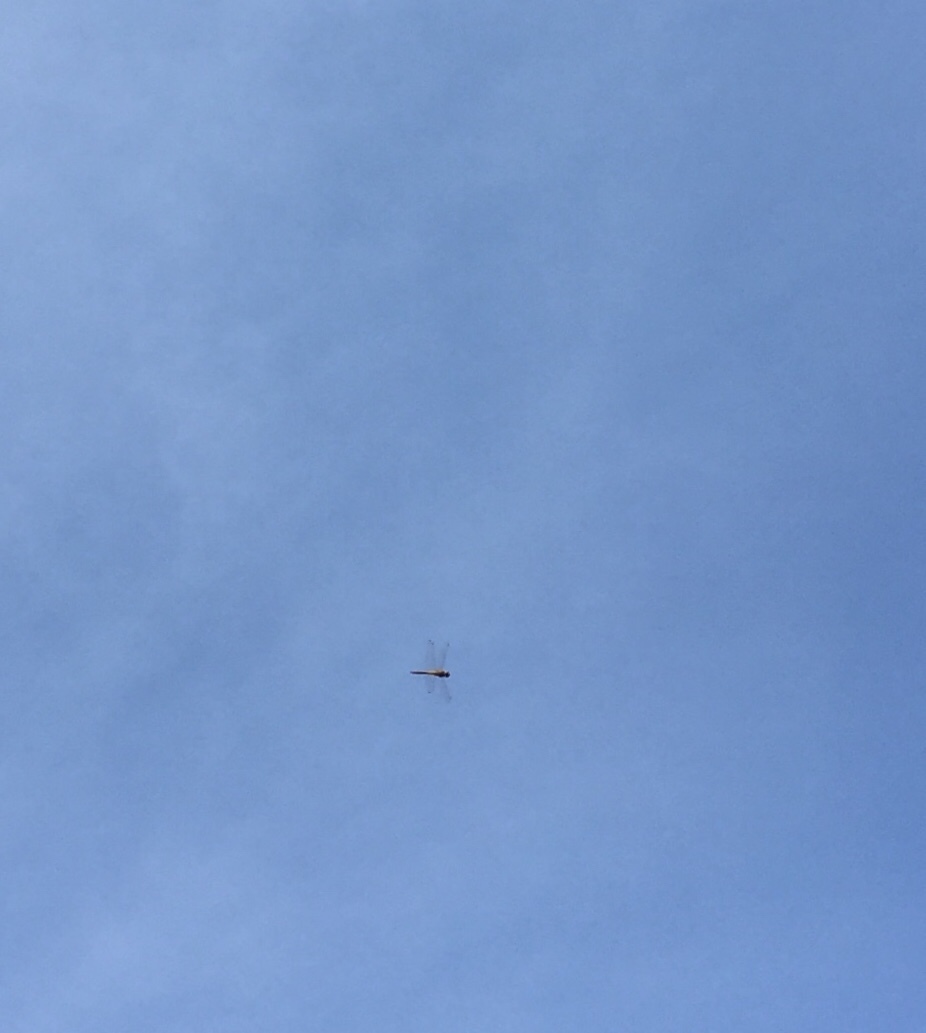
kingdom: Animalia
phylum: Arthropoda
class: Insecta
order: Odonata
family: Libellulidae
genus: Pantala
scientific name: Pantala flavescens
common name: Wandering glider
